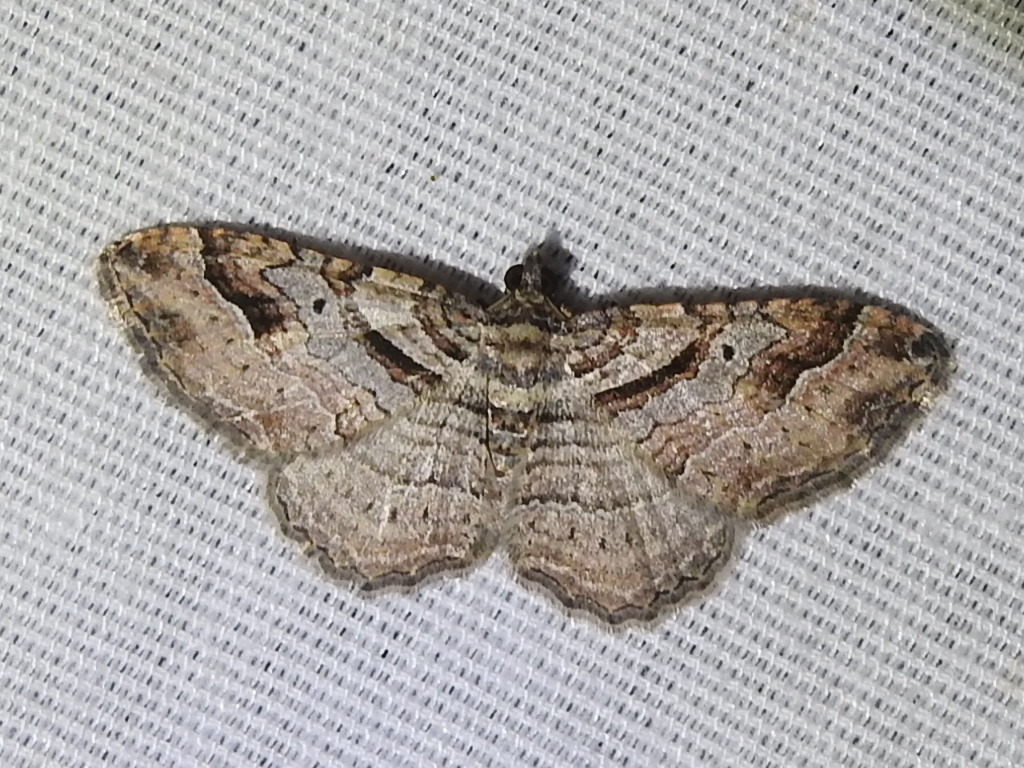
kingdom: Animalia
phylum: Arthropoda
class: Insecta
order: Lepidoptera
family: Geometridae
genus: Costaconvexa
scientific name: Costaconvexa centrostrigaria
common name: Bent-line carpet
